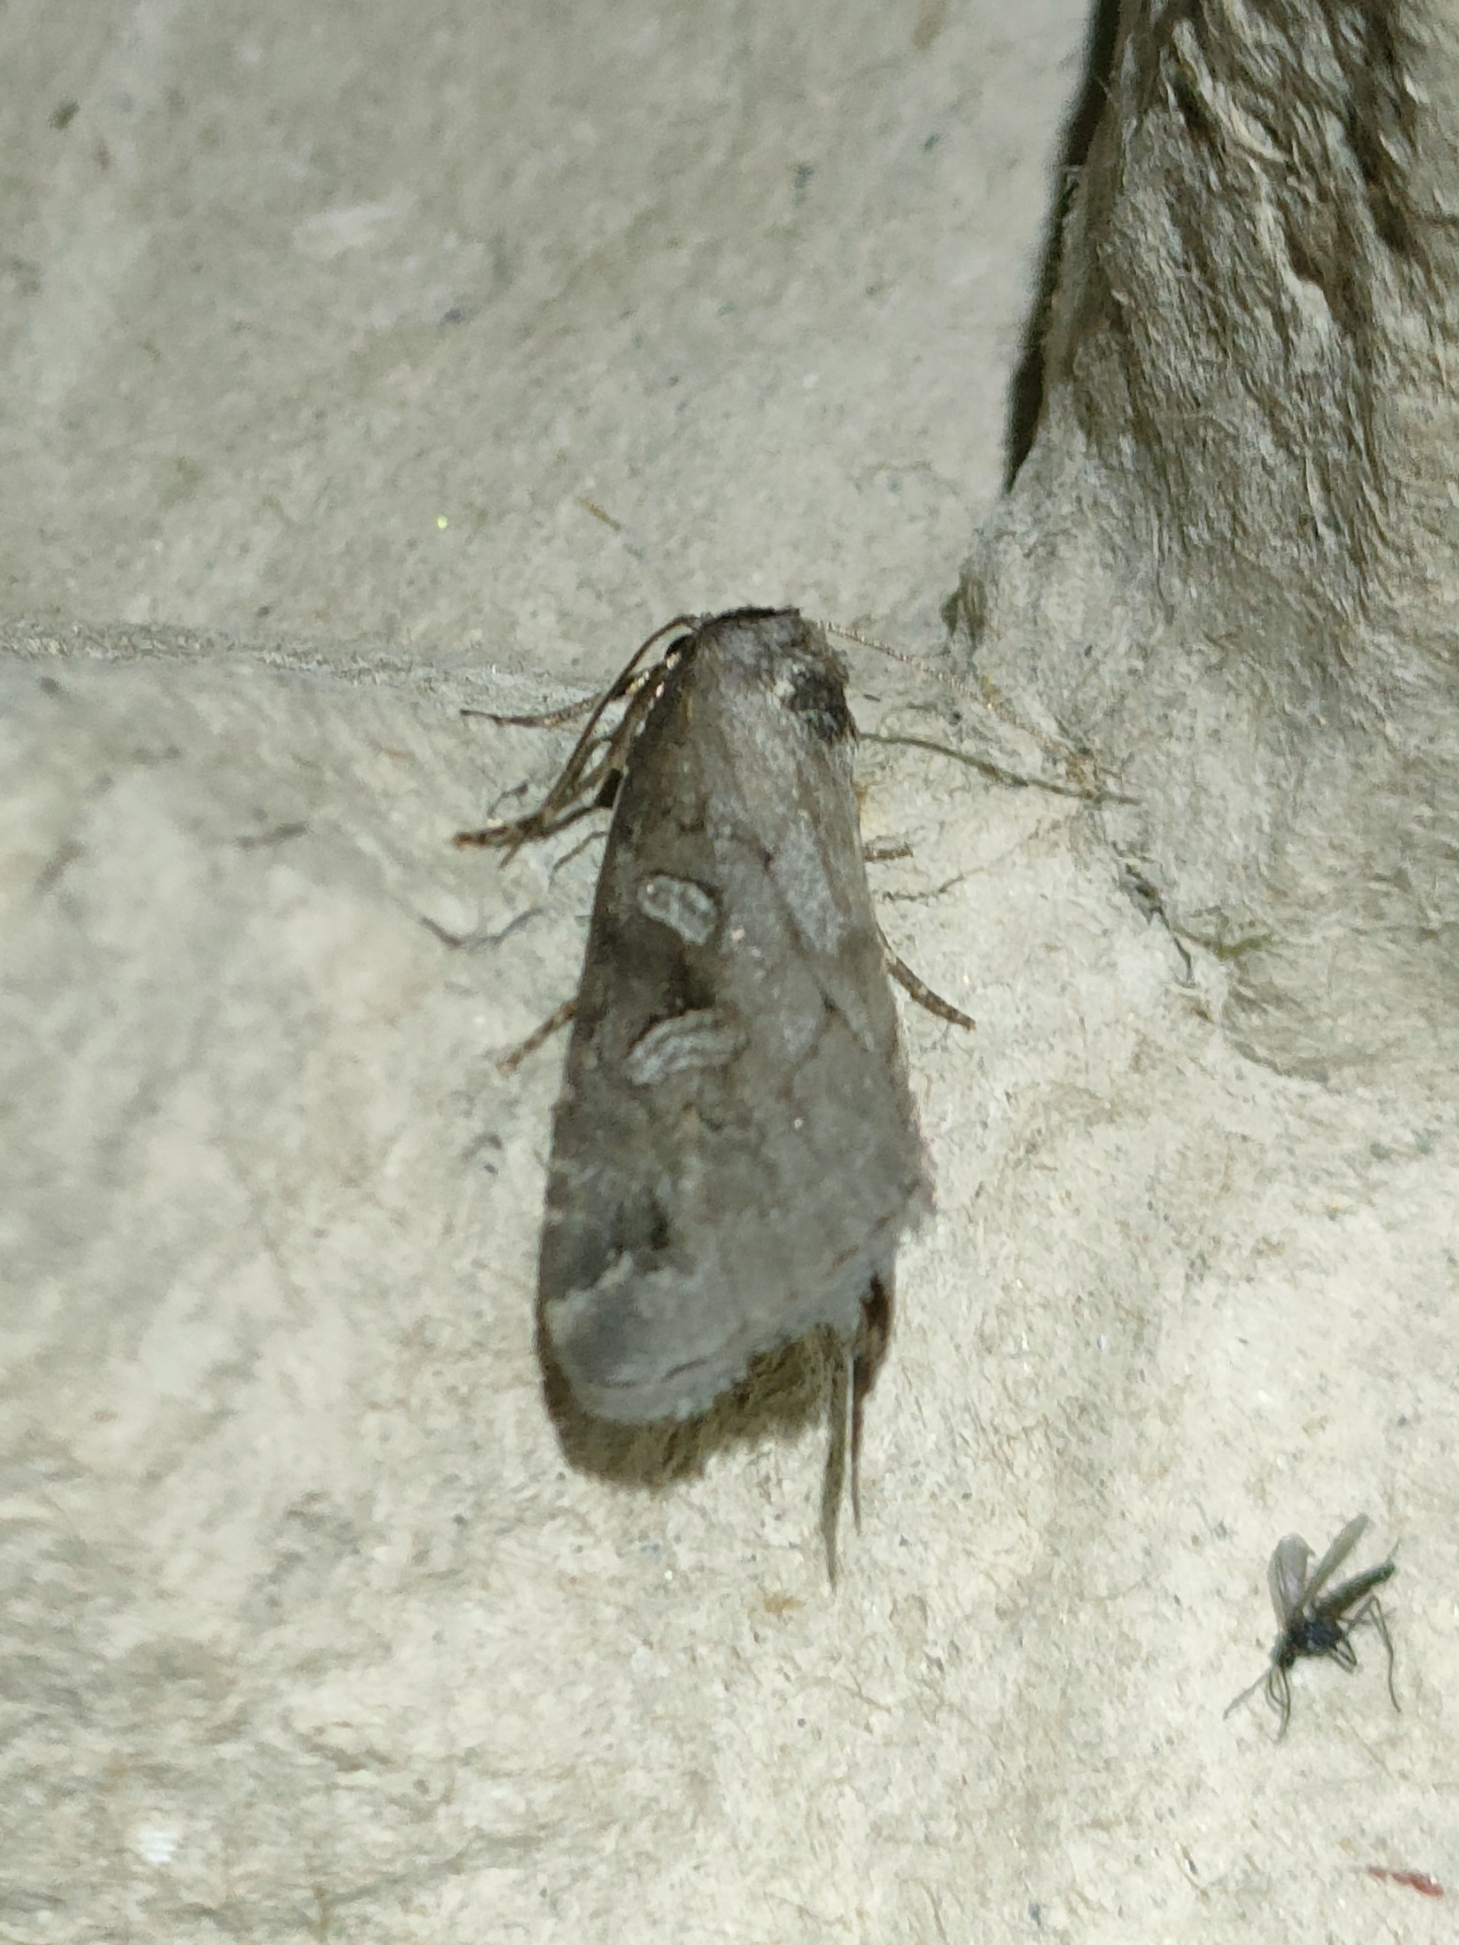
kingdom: Animalia
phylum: Arthropoda
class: Insecta
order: Lepidoptera
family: Noctuidae
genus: Stilbia
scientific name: Stilbia anomala
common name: Anomalous
